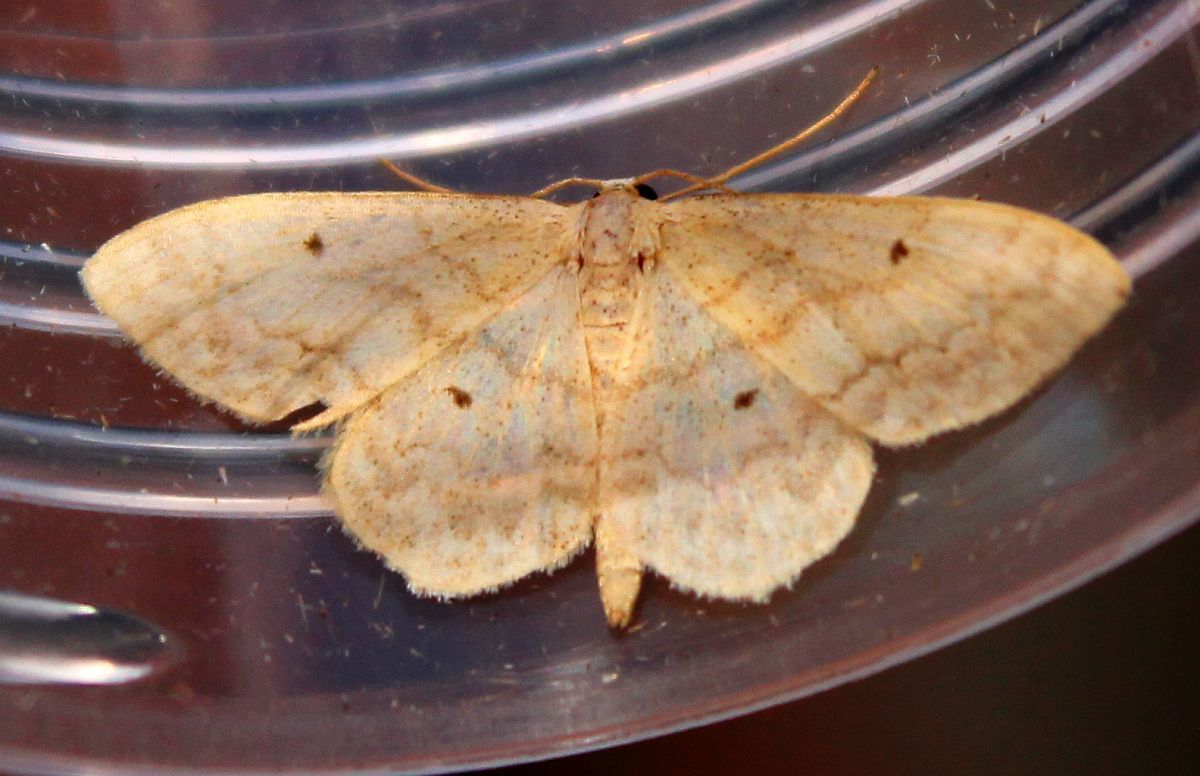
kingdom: Animalia
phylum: Arthropoda
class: Insecta
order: Lepidoptera
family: Geometridae
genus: Idaea
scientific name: Idaea biselata
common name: Small fan-footed wave
